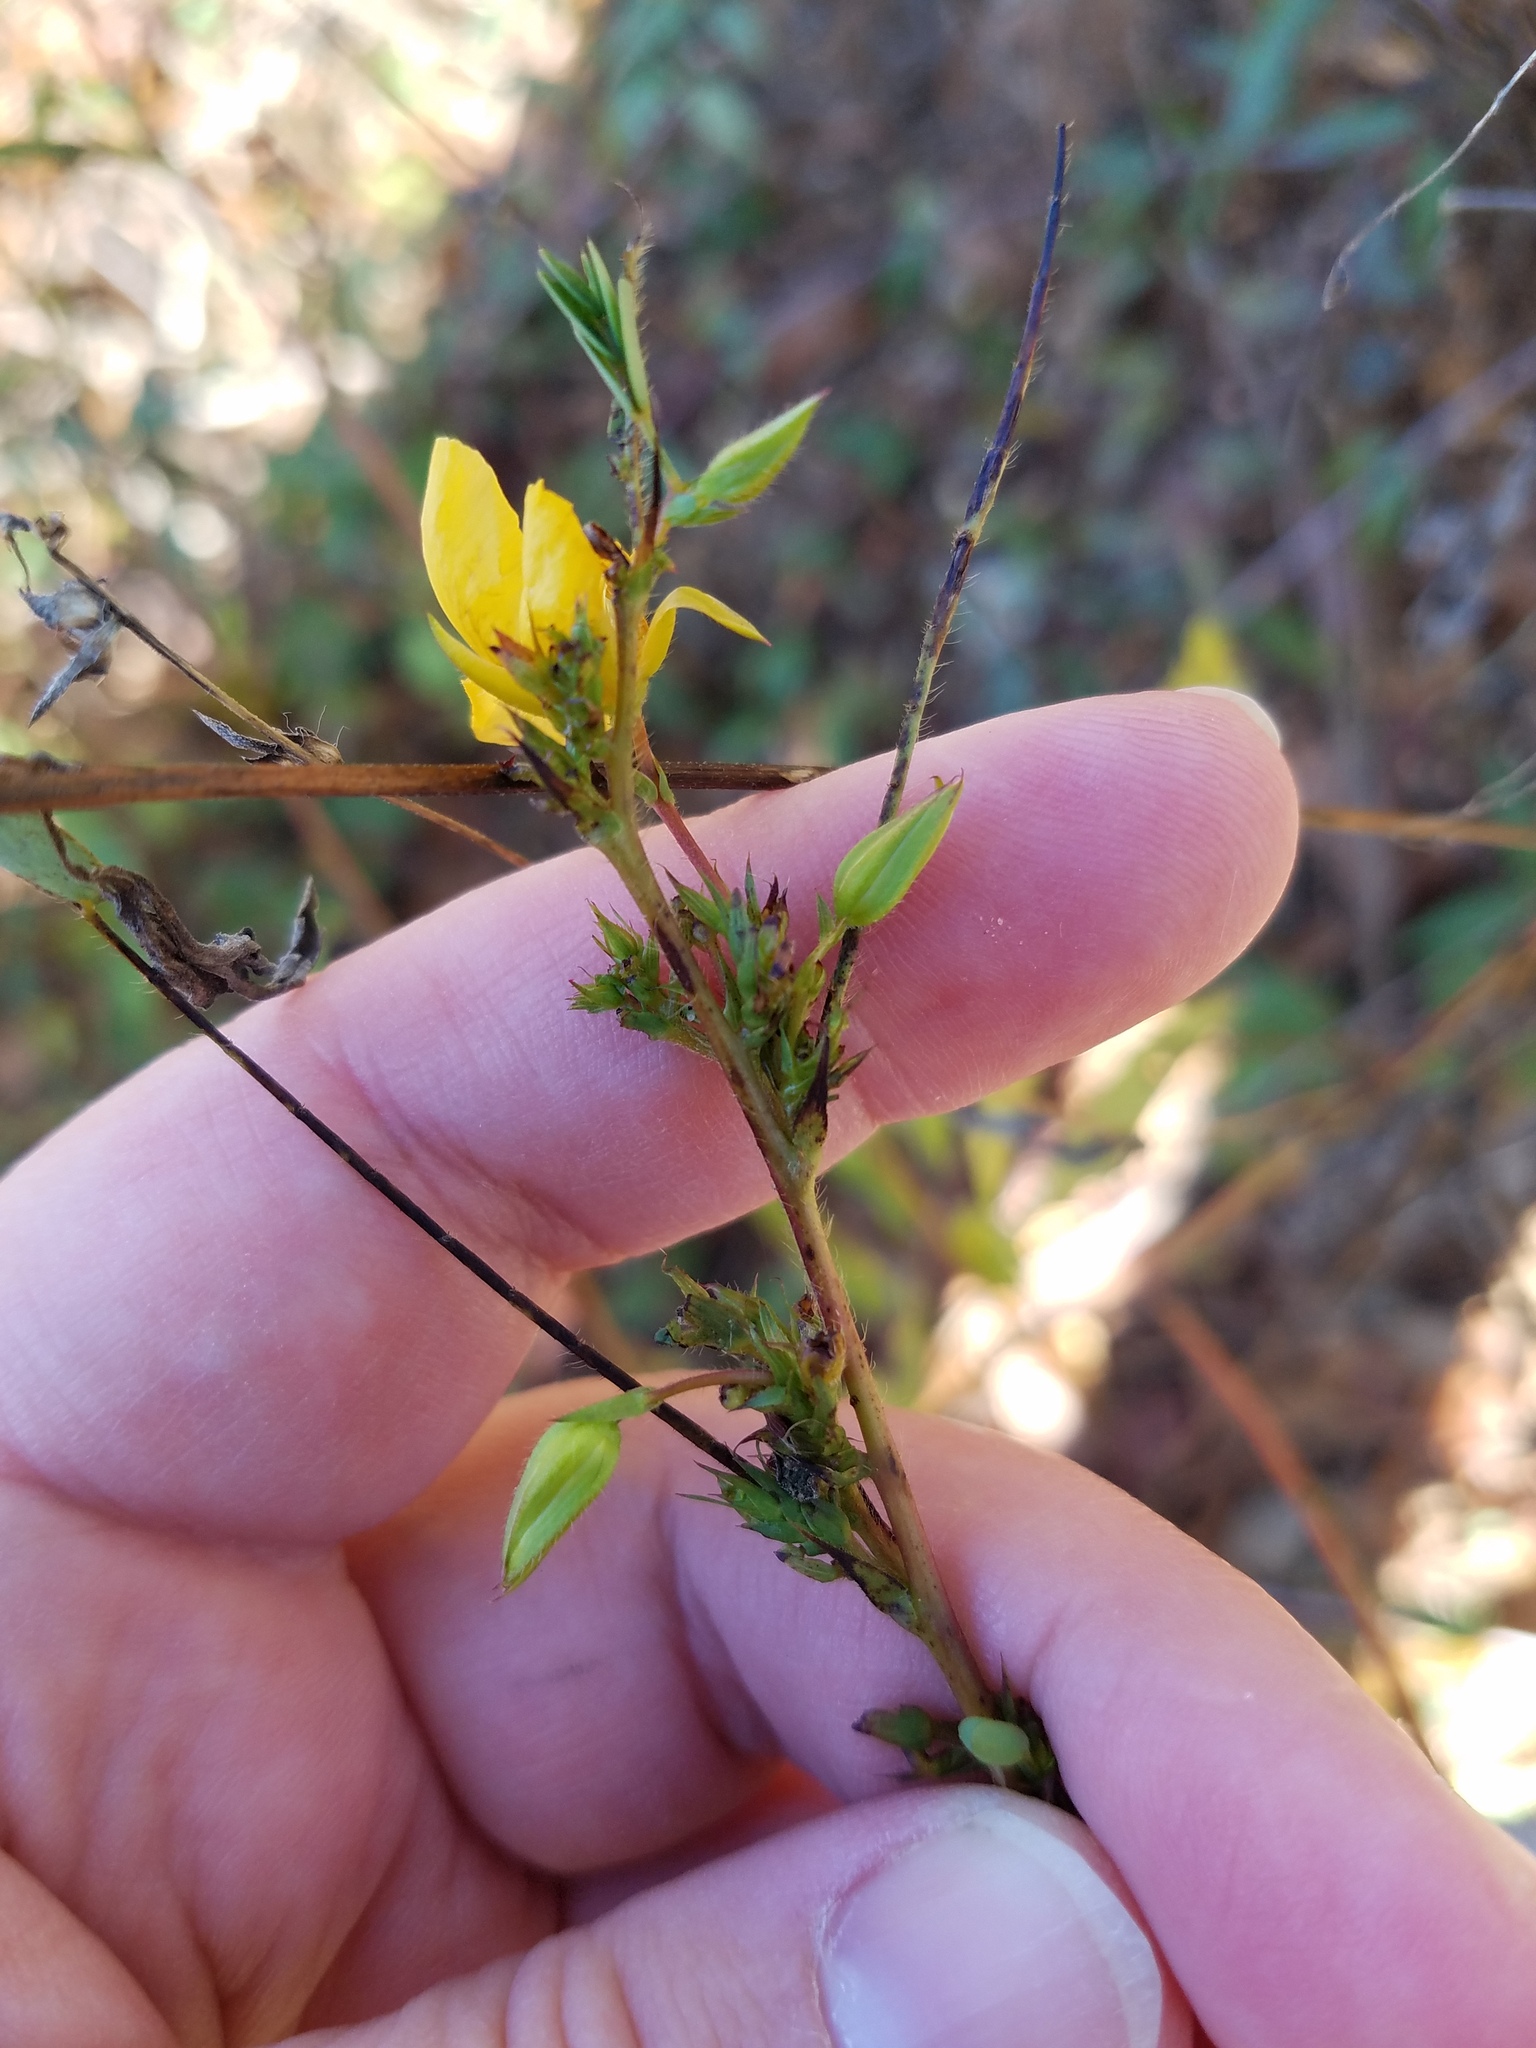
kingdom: Plantae
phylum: Tracheophyta
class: Magnoliopsida
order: Fabales
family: Fabaceae
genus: Chamaecrista
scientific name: Chamaecrista fasciculata
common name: Golden cassia
